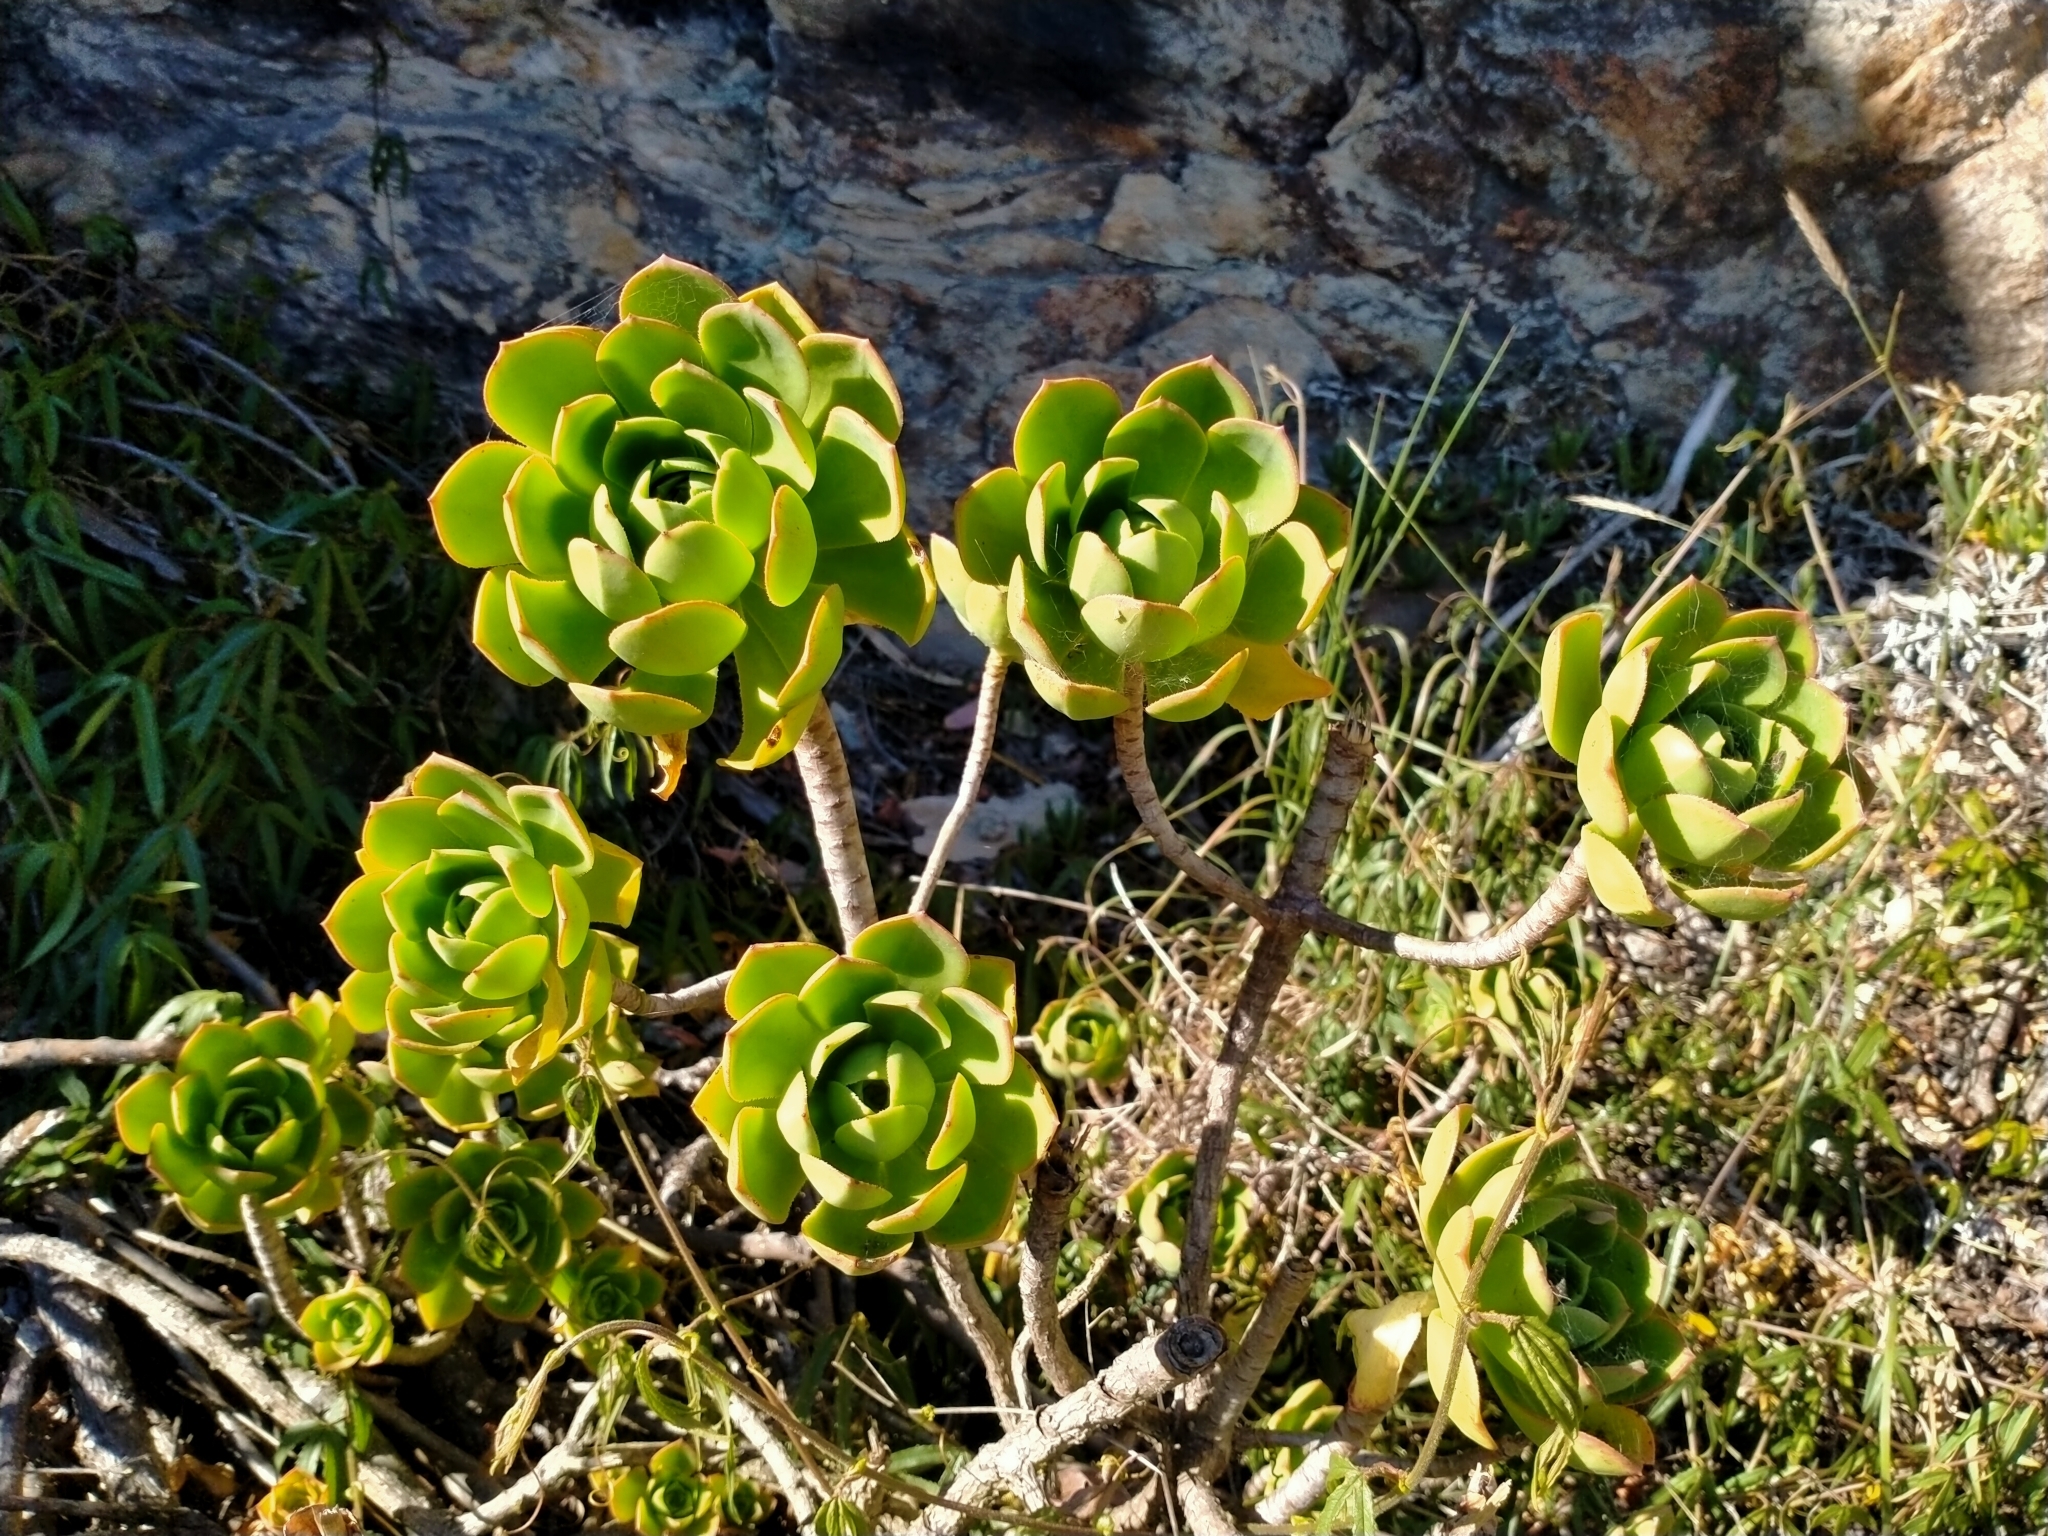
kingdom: Plantae
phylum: Tracheophyta
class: Magnoliopsida
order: Saxifragales
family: Crassulaceae
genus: Aeonium
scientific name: Aeonium arboreum
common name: Tree aeonium
